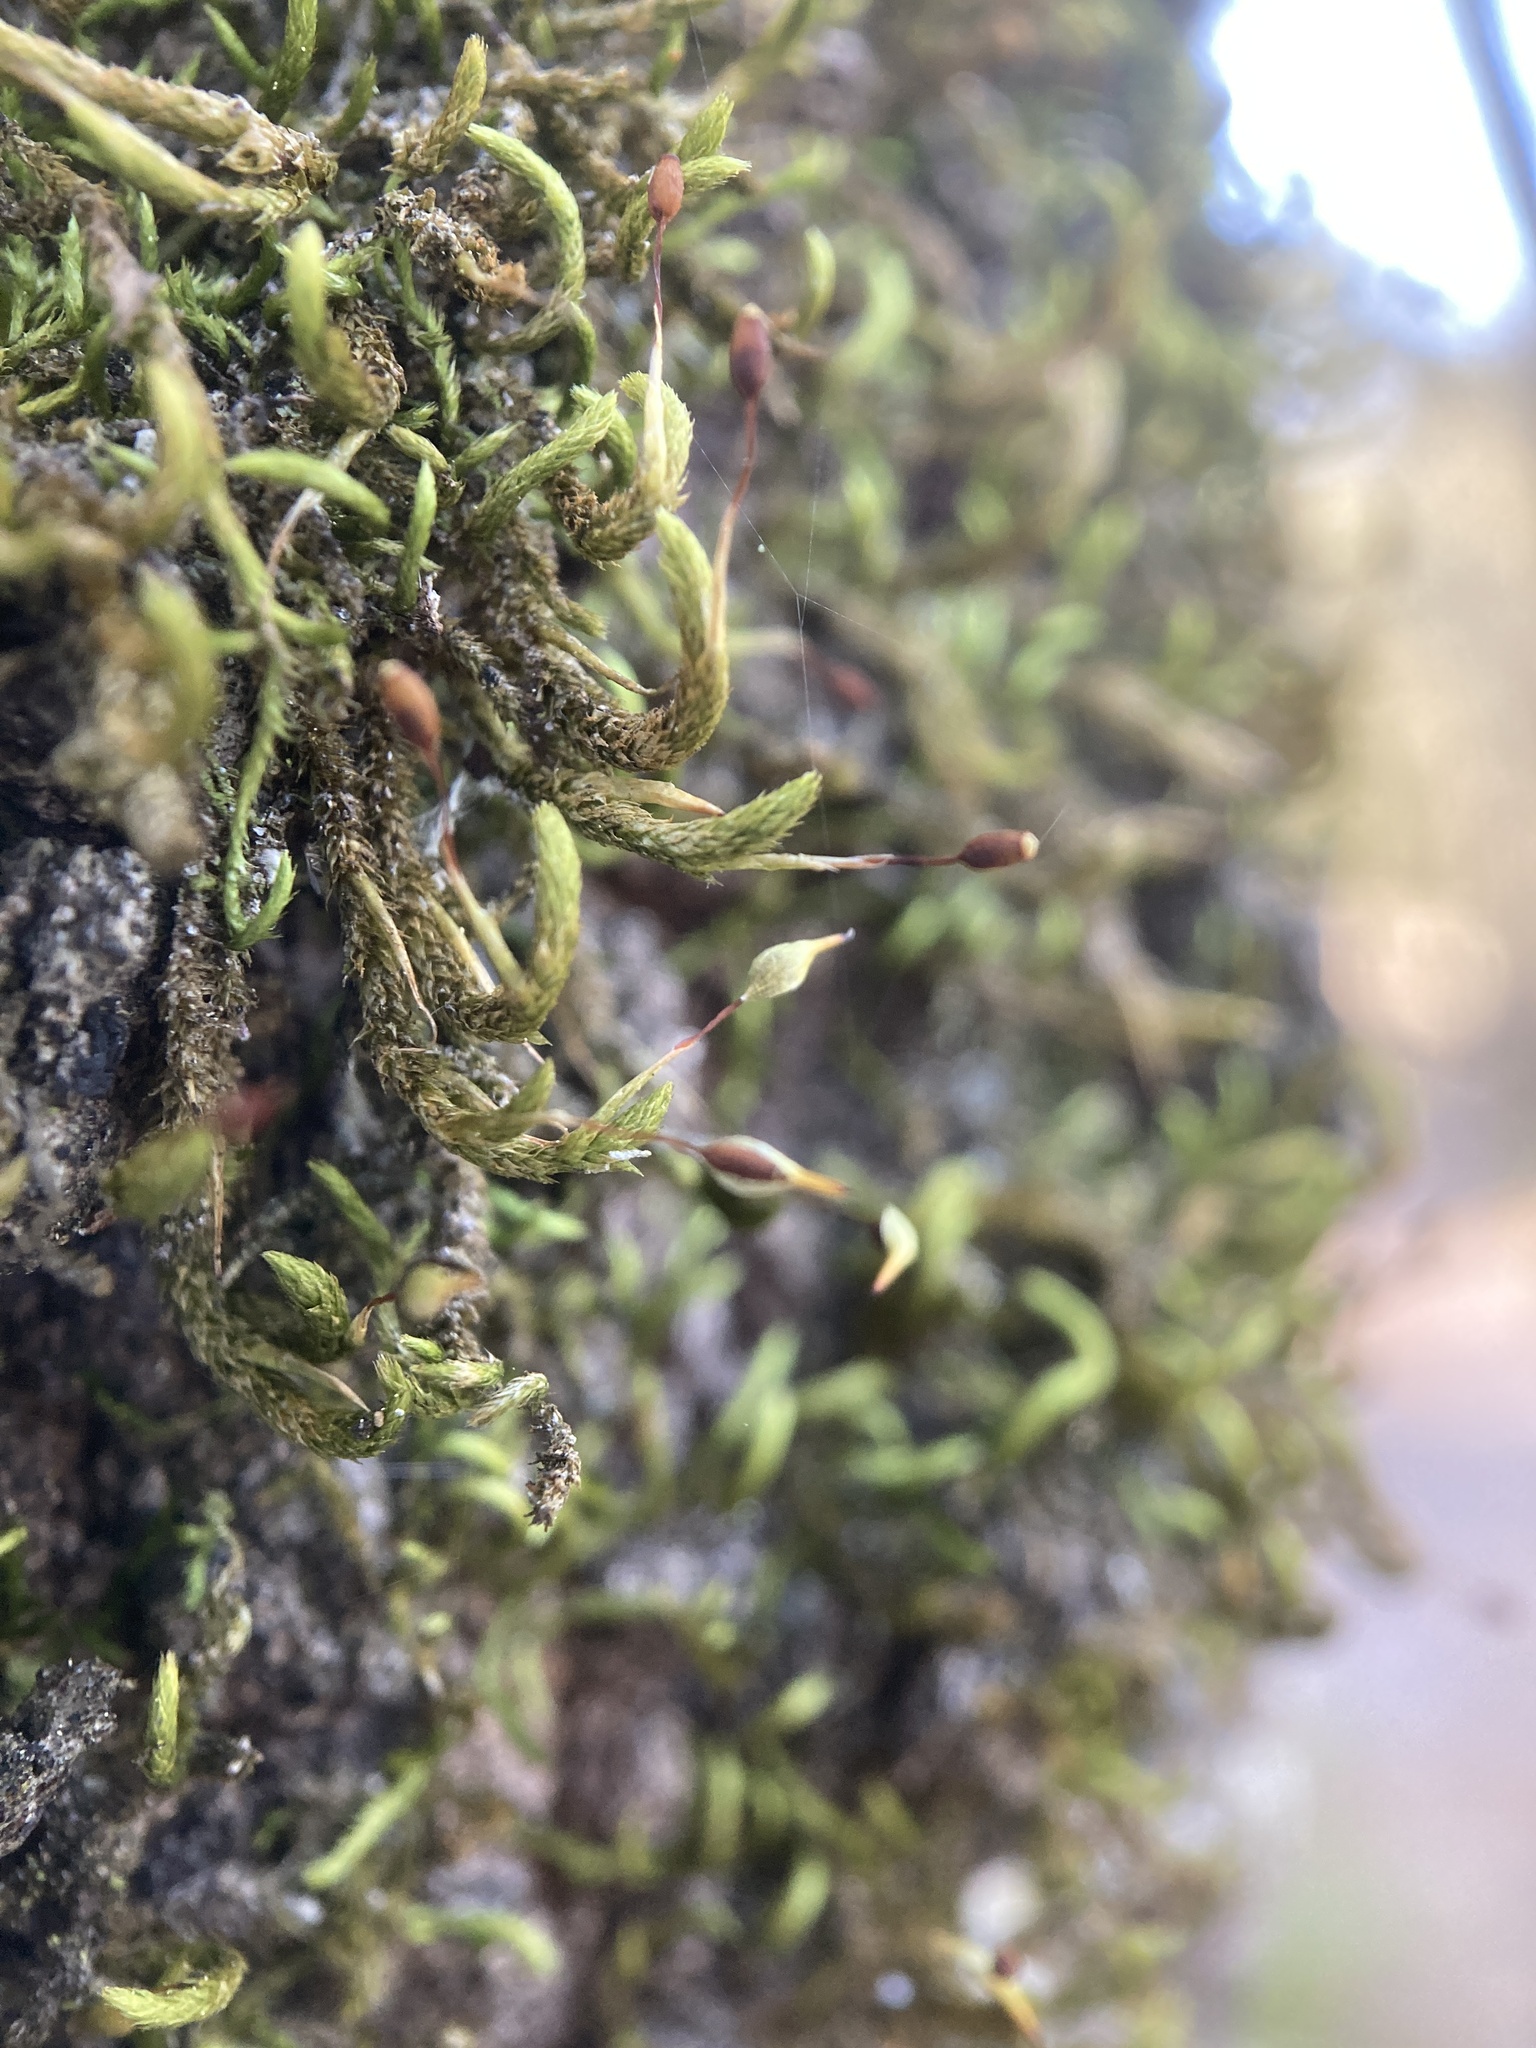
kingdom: Plantae
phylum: Bryophyta
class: Bryopsida
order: Hypnales
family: Leucodontaceae
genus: Leucodon
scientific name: Leucodon julaceus
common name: Smooth hook moss
